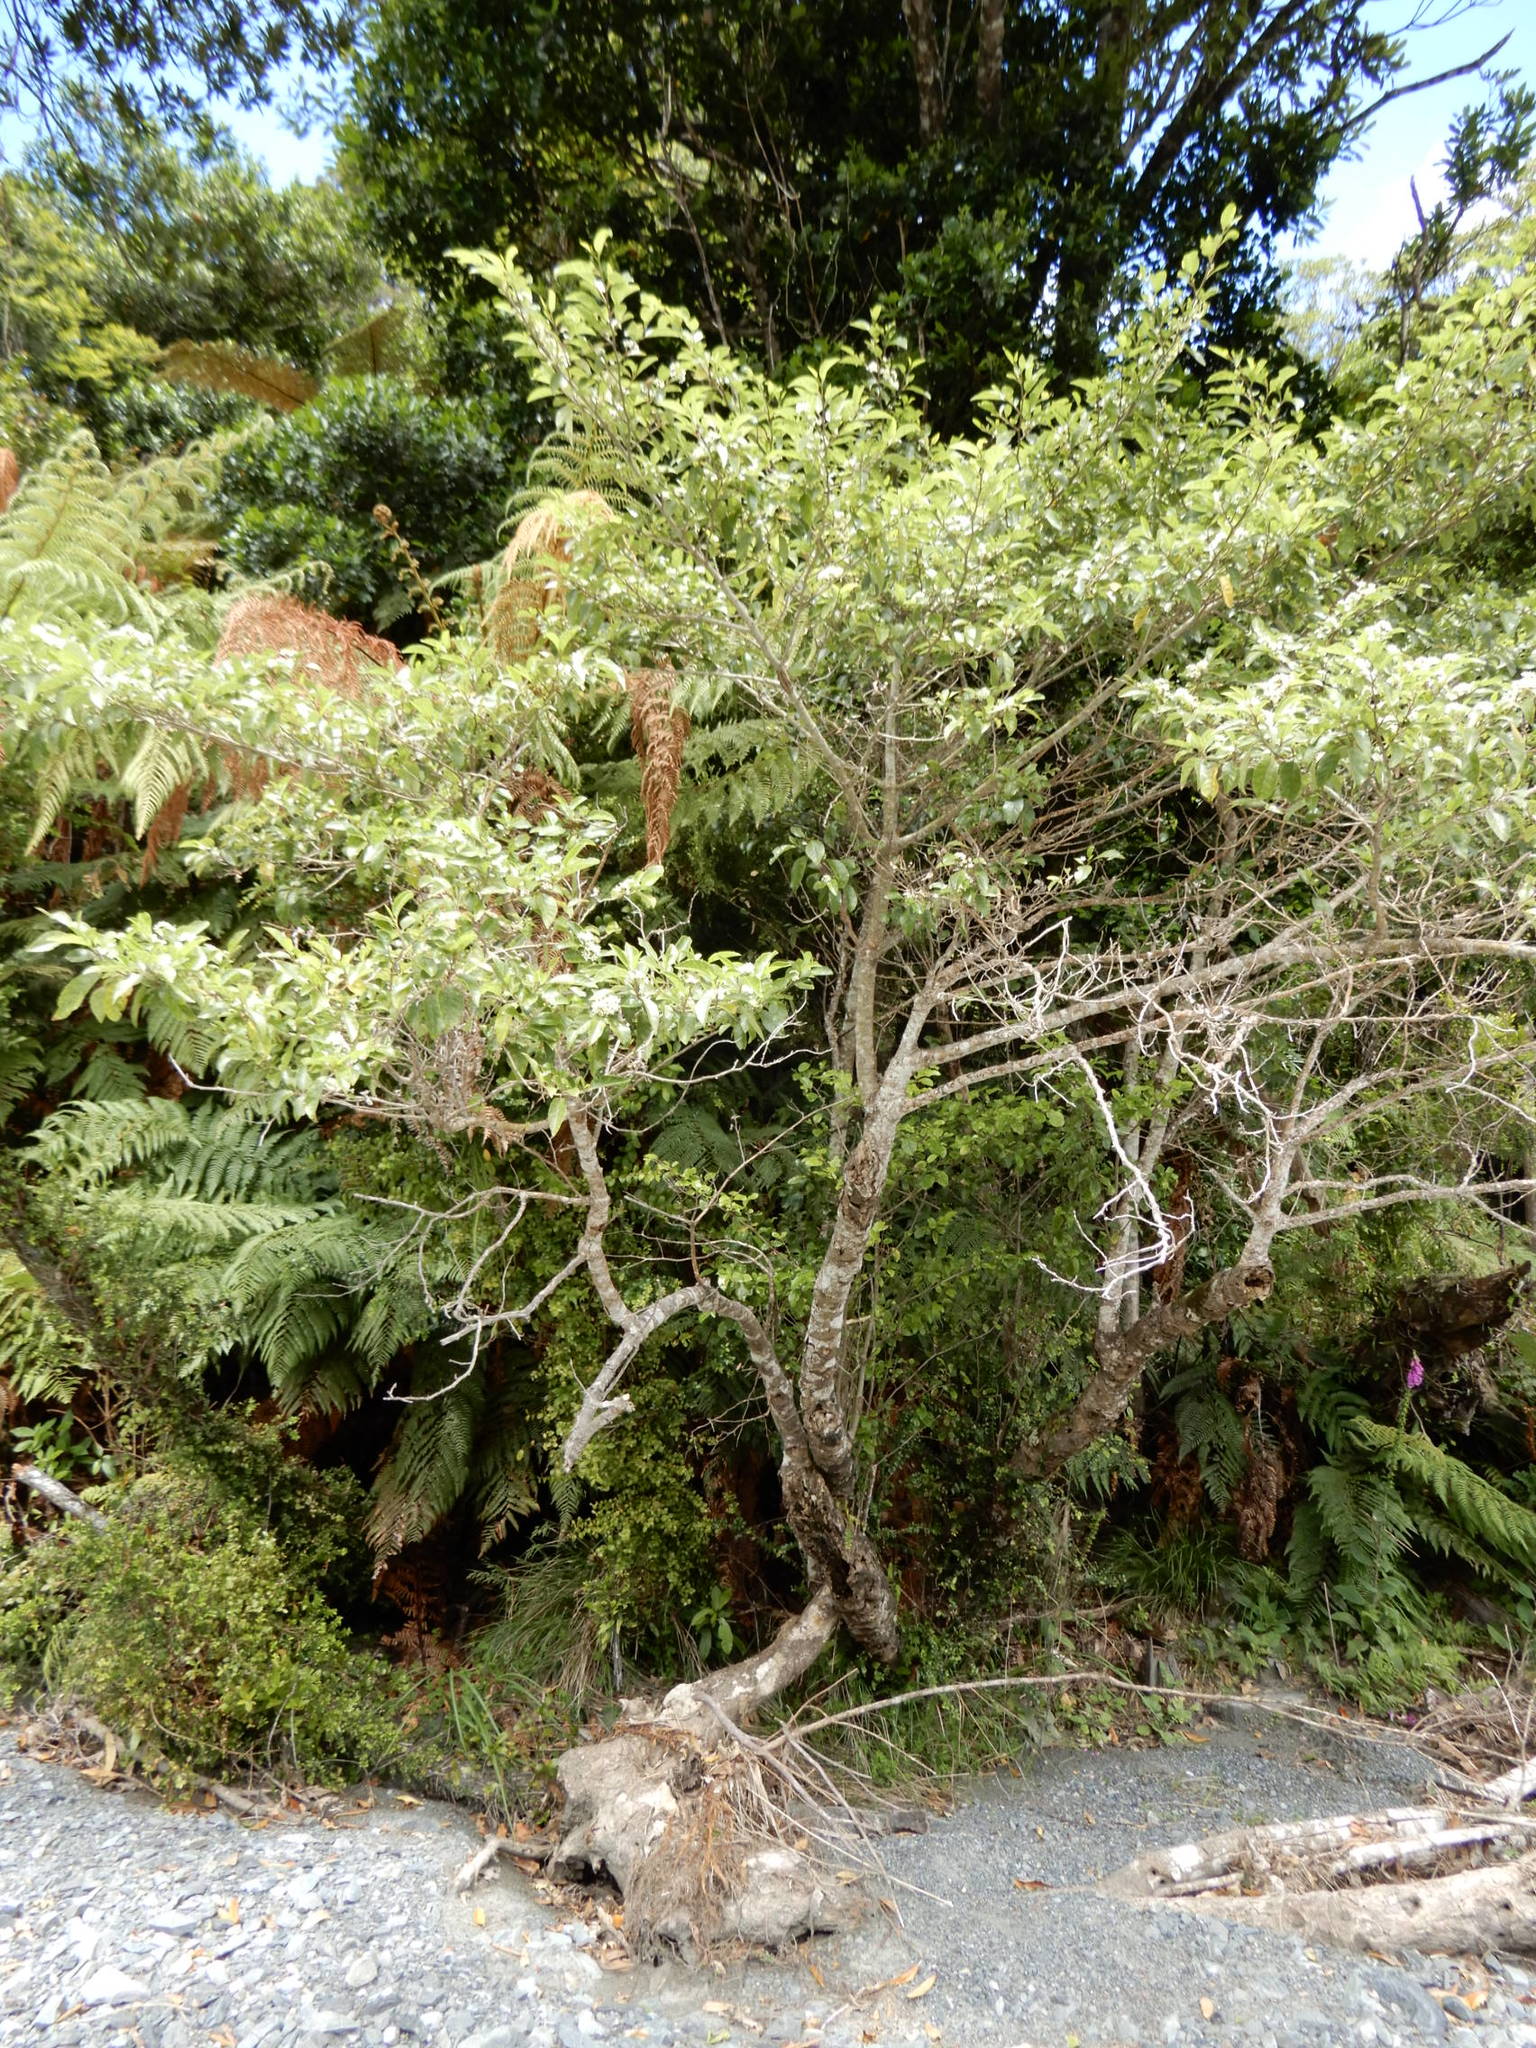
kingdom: Plantae
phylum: Tracheophyta
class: Magnoliopsida
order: Asterales
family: Rousseaceae
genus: Carpodetus
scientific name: Carpodetus serratus
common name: White mapau
